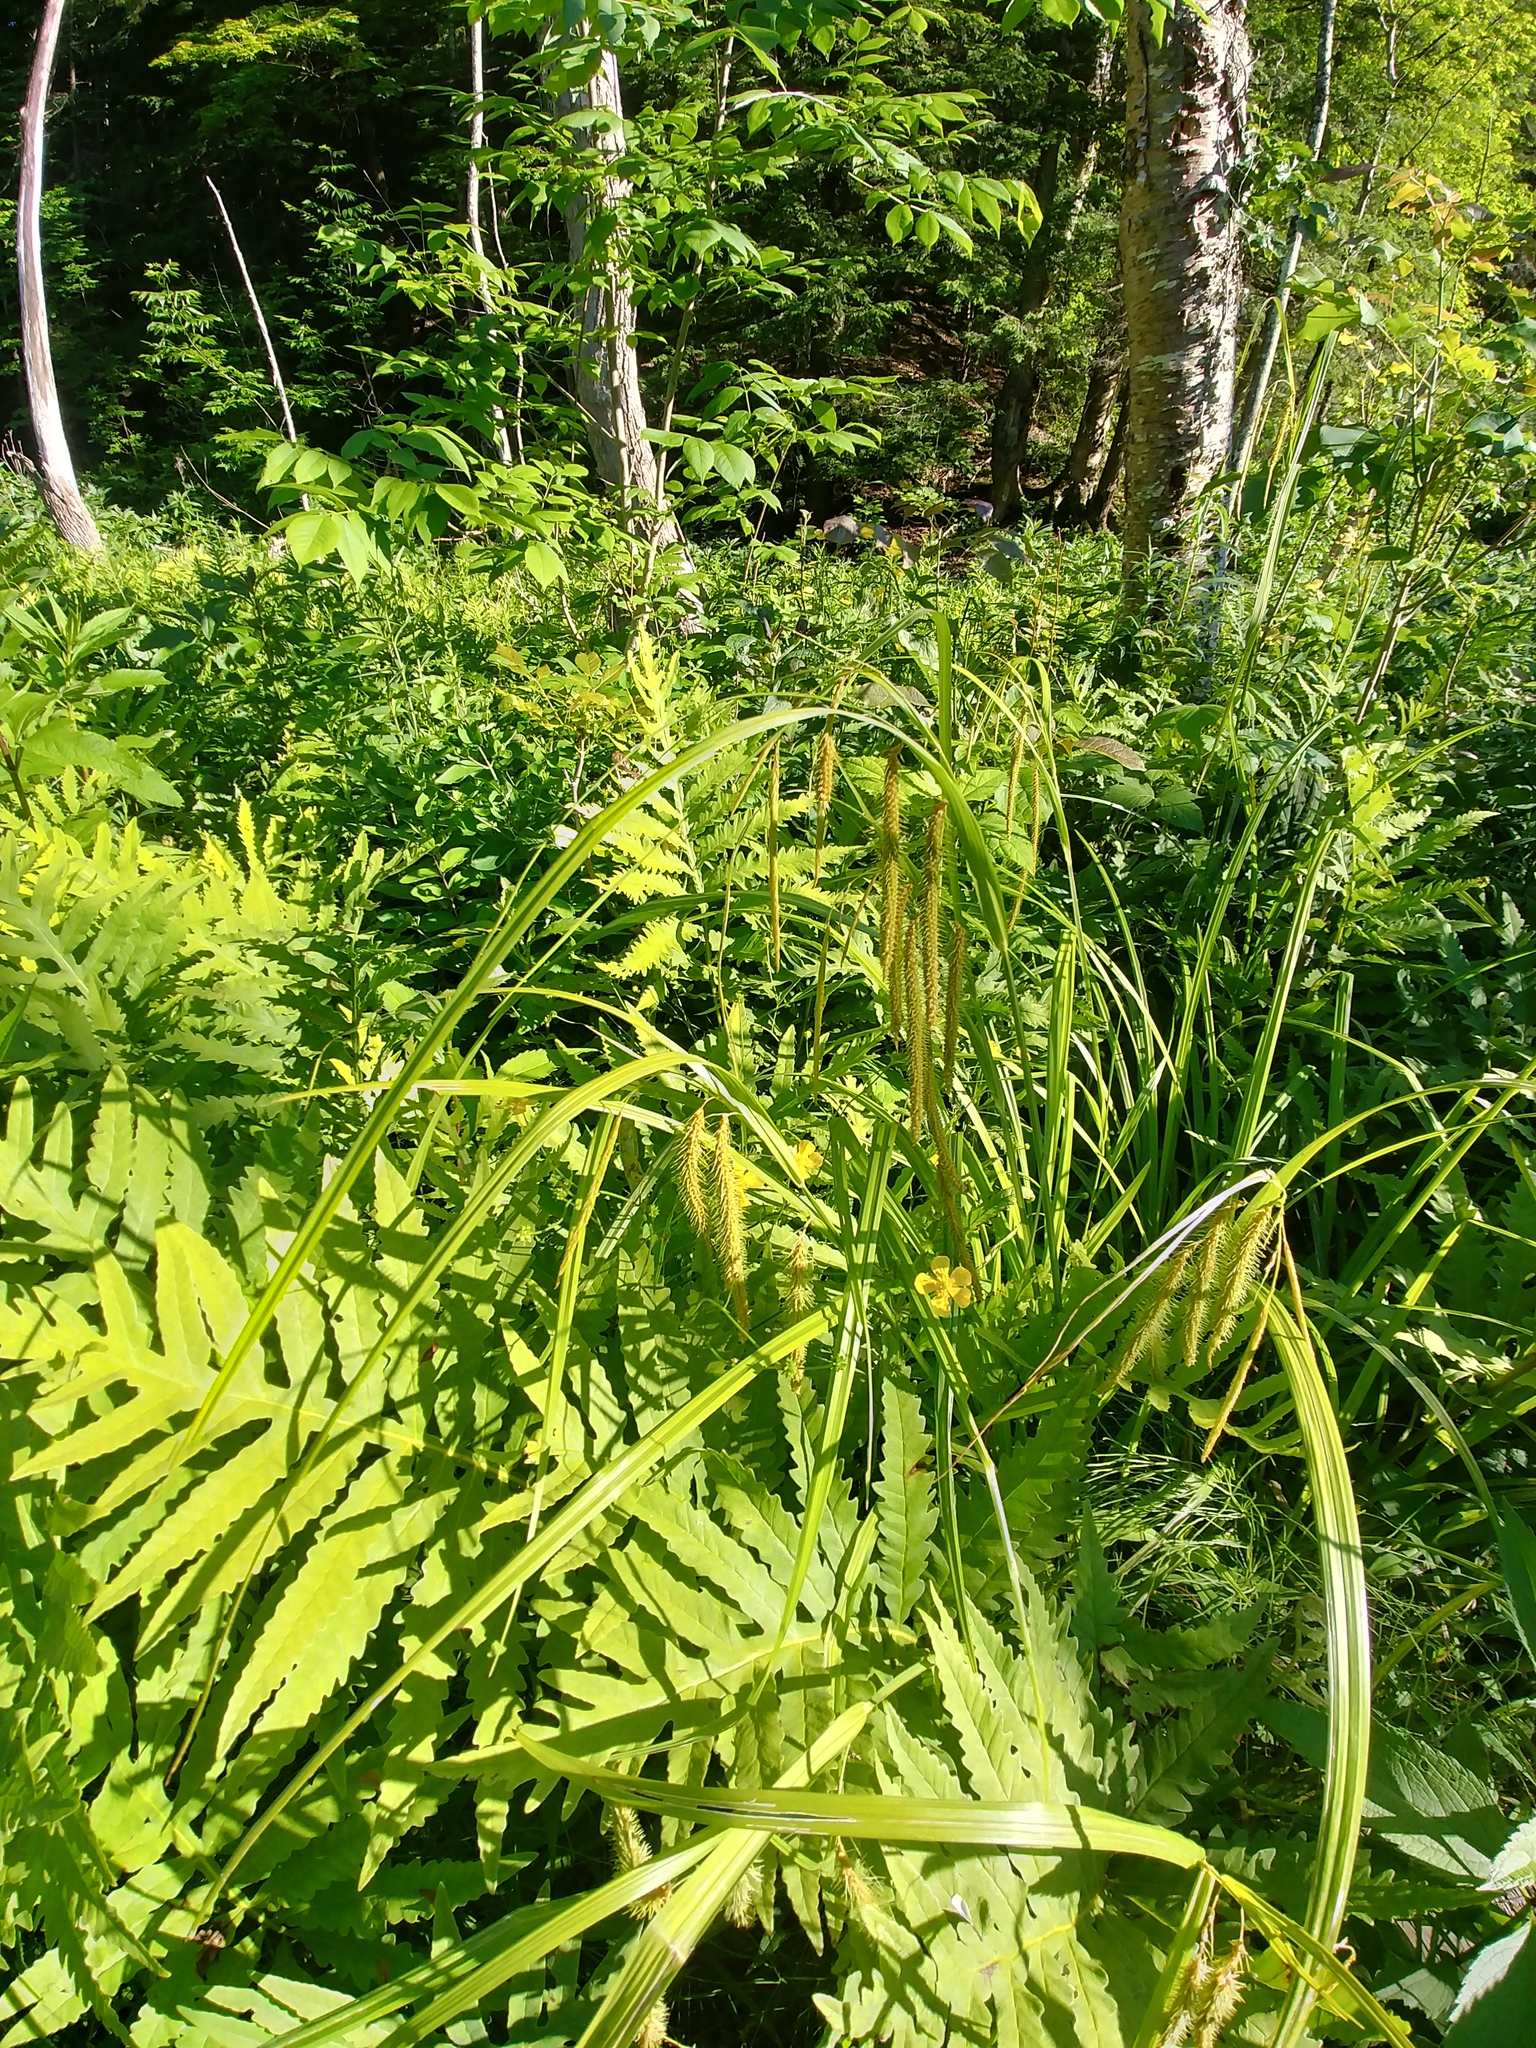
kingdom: Plantae
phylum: Tracheophyta
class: Liliopsida
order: Poales
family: Cyperaceae
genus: Carex
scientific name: Carex crinita
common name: Fringed sedge
